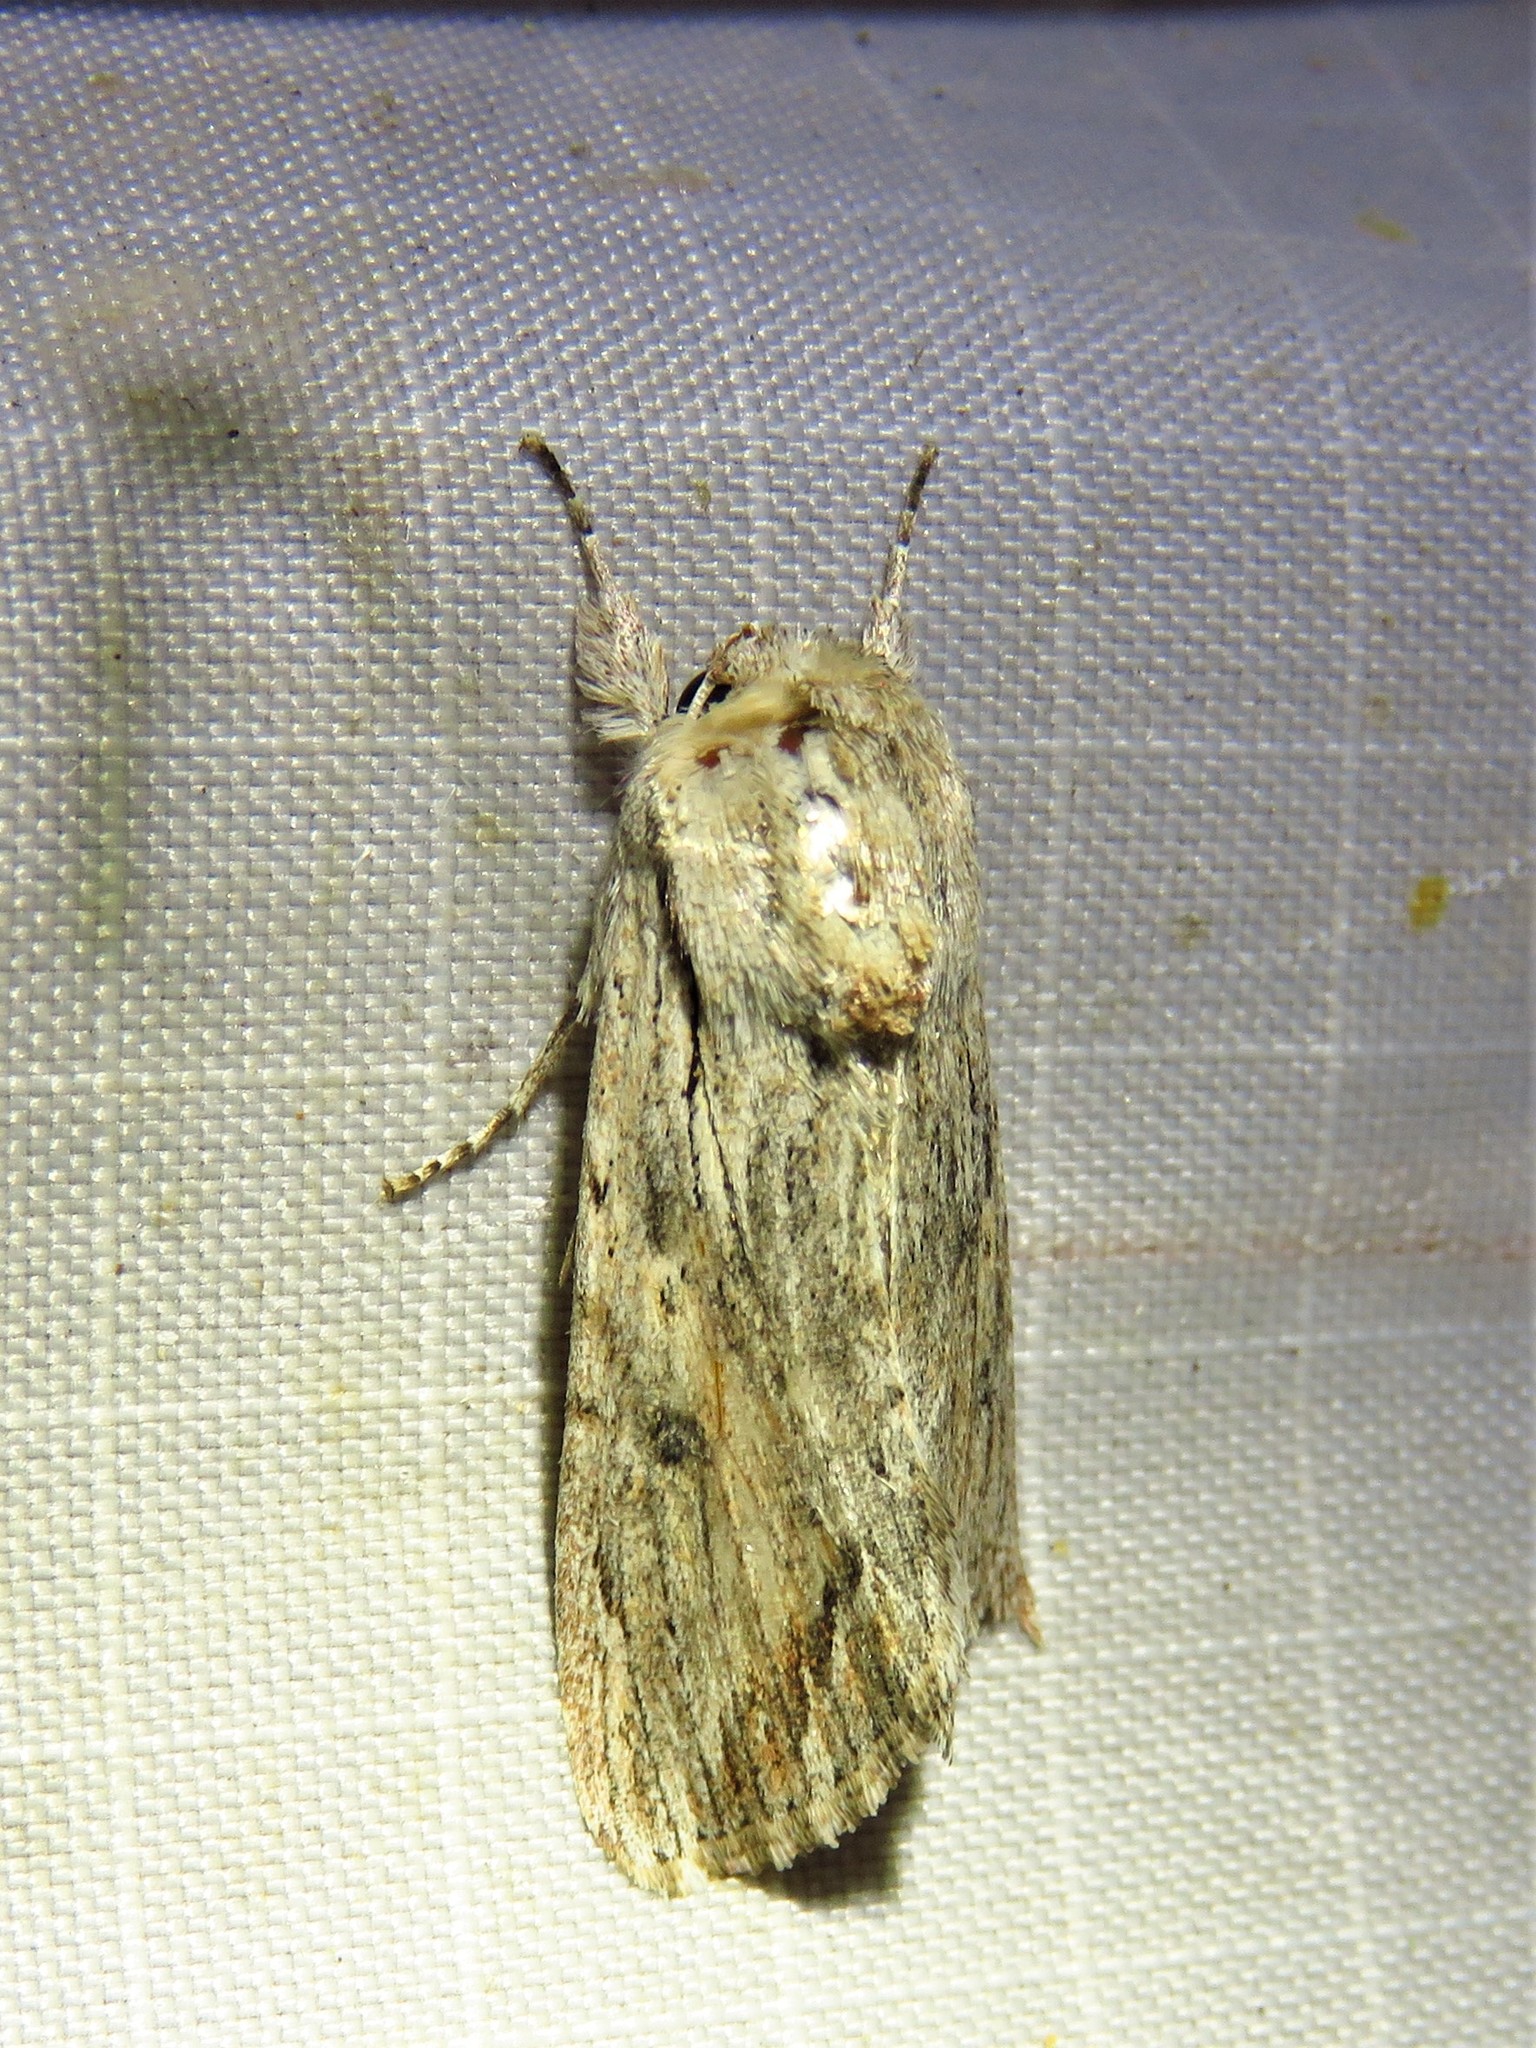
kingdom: Animalia
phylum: Arthropoda
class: Insecta
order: Lepidoptera
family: Noctuidae
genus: Spodoptera
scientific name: Spodoptera eridania
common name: Southern army worm
